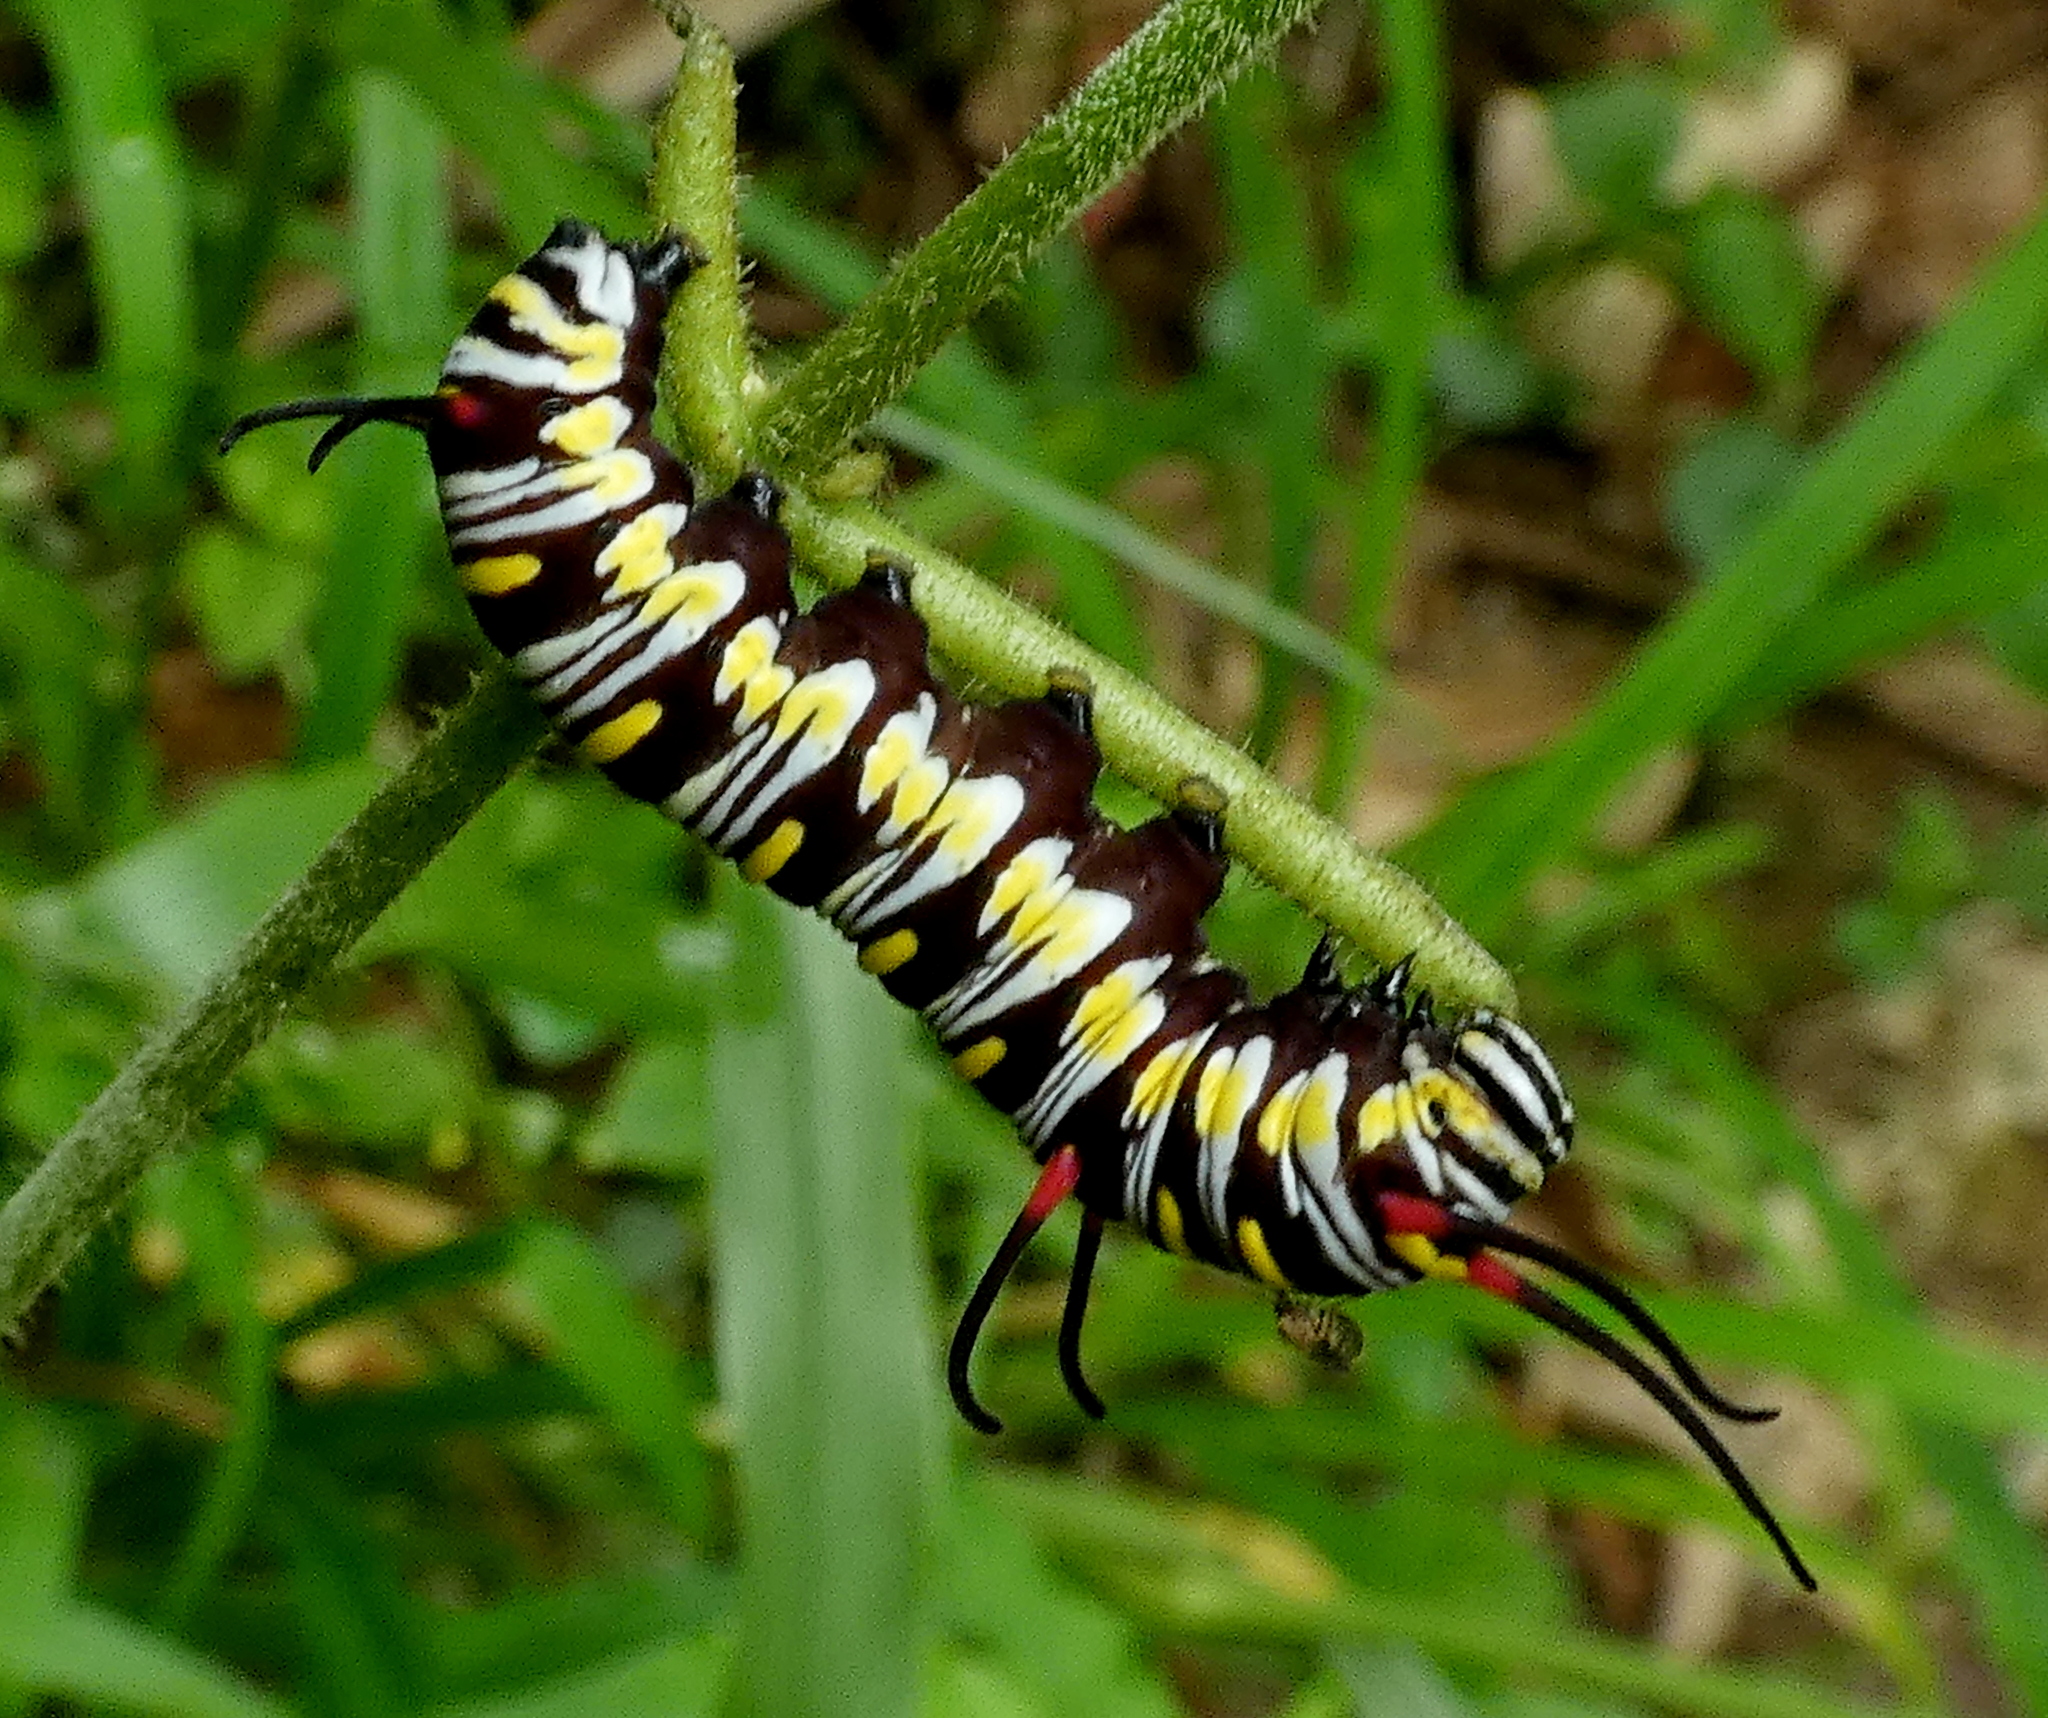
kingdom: Animalia
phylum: Arthropoda
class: Insecta
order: Lepidoptera
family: Nymphalidae
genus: Danaus
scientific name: Danaus gilippus
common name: Queen
